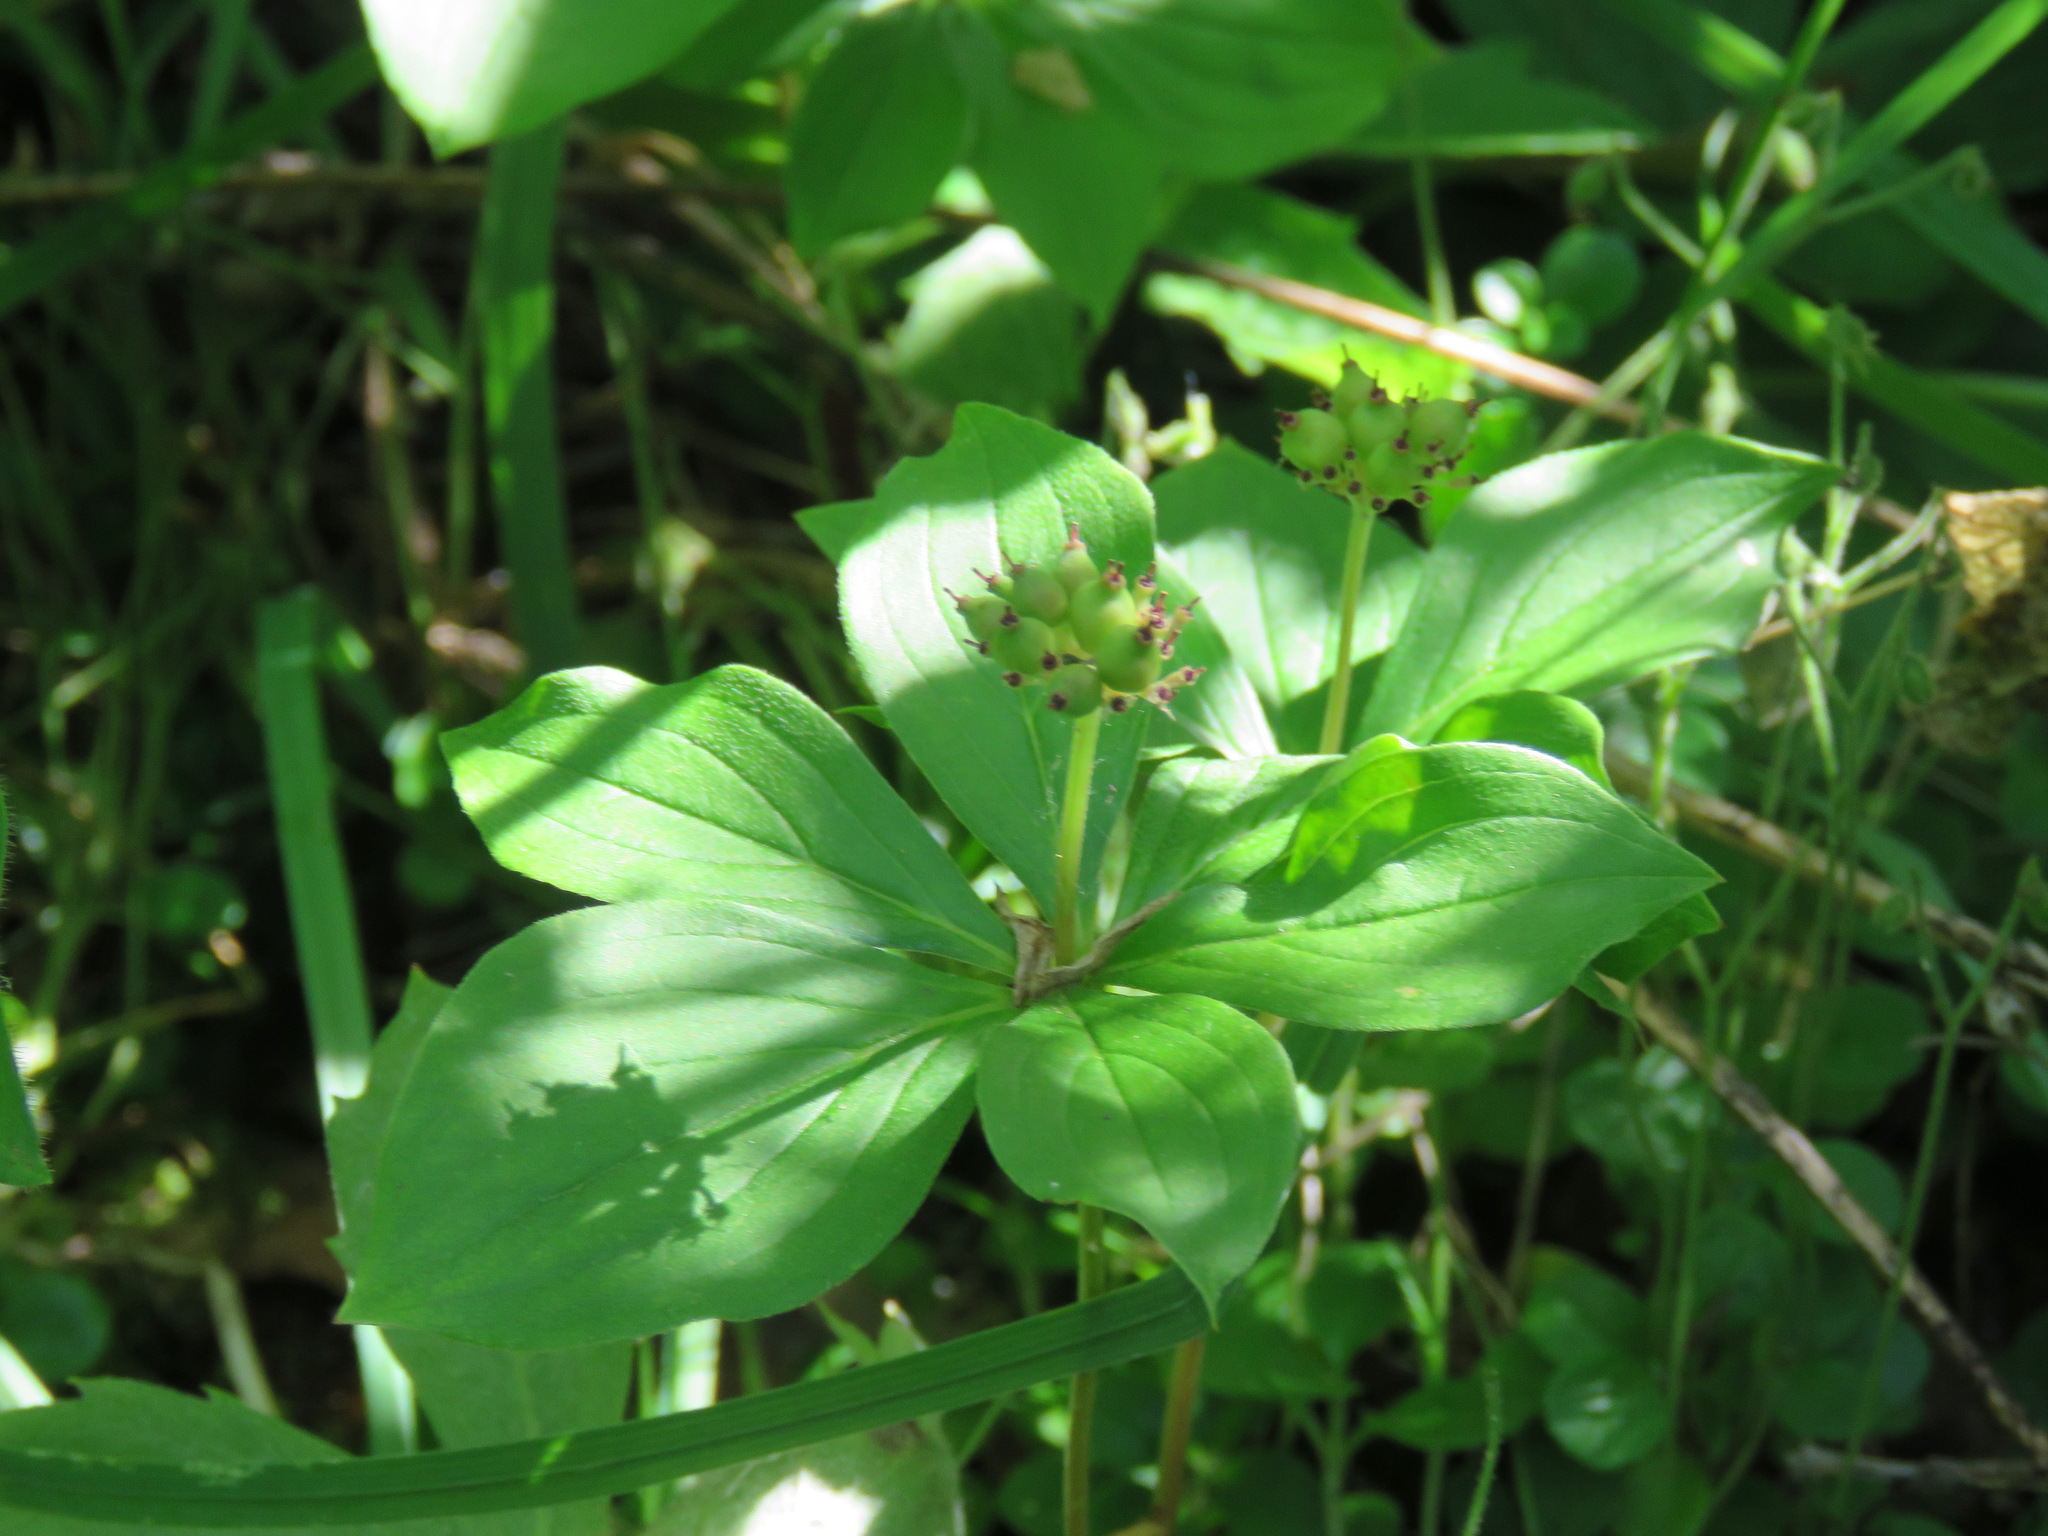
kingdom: Plantae
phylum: Tracheophyta
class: Magnoliopsida
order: Cornales
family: Cornaceae
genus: Cornus
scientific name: Cornus canadensis
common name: Creeping dogwood
